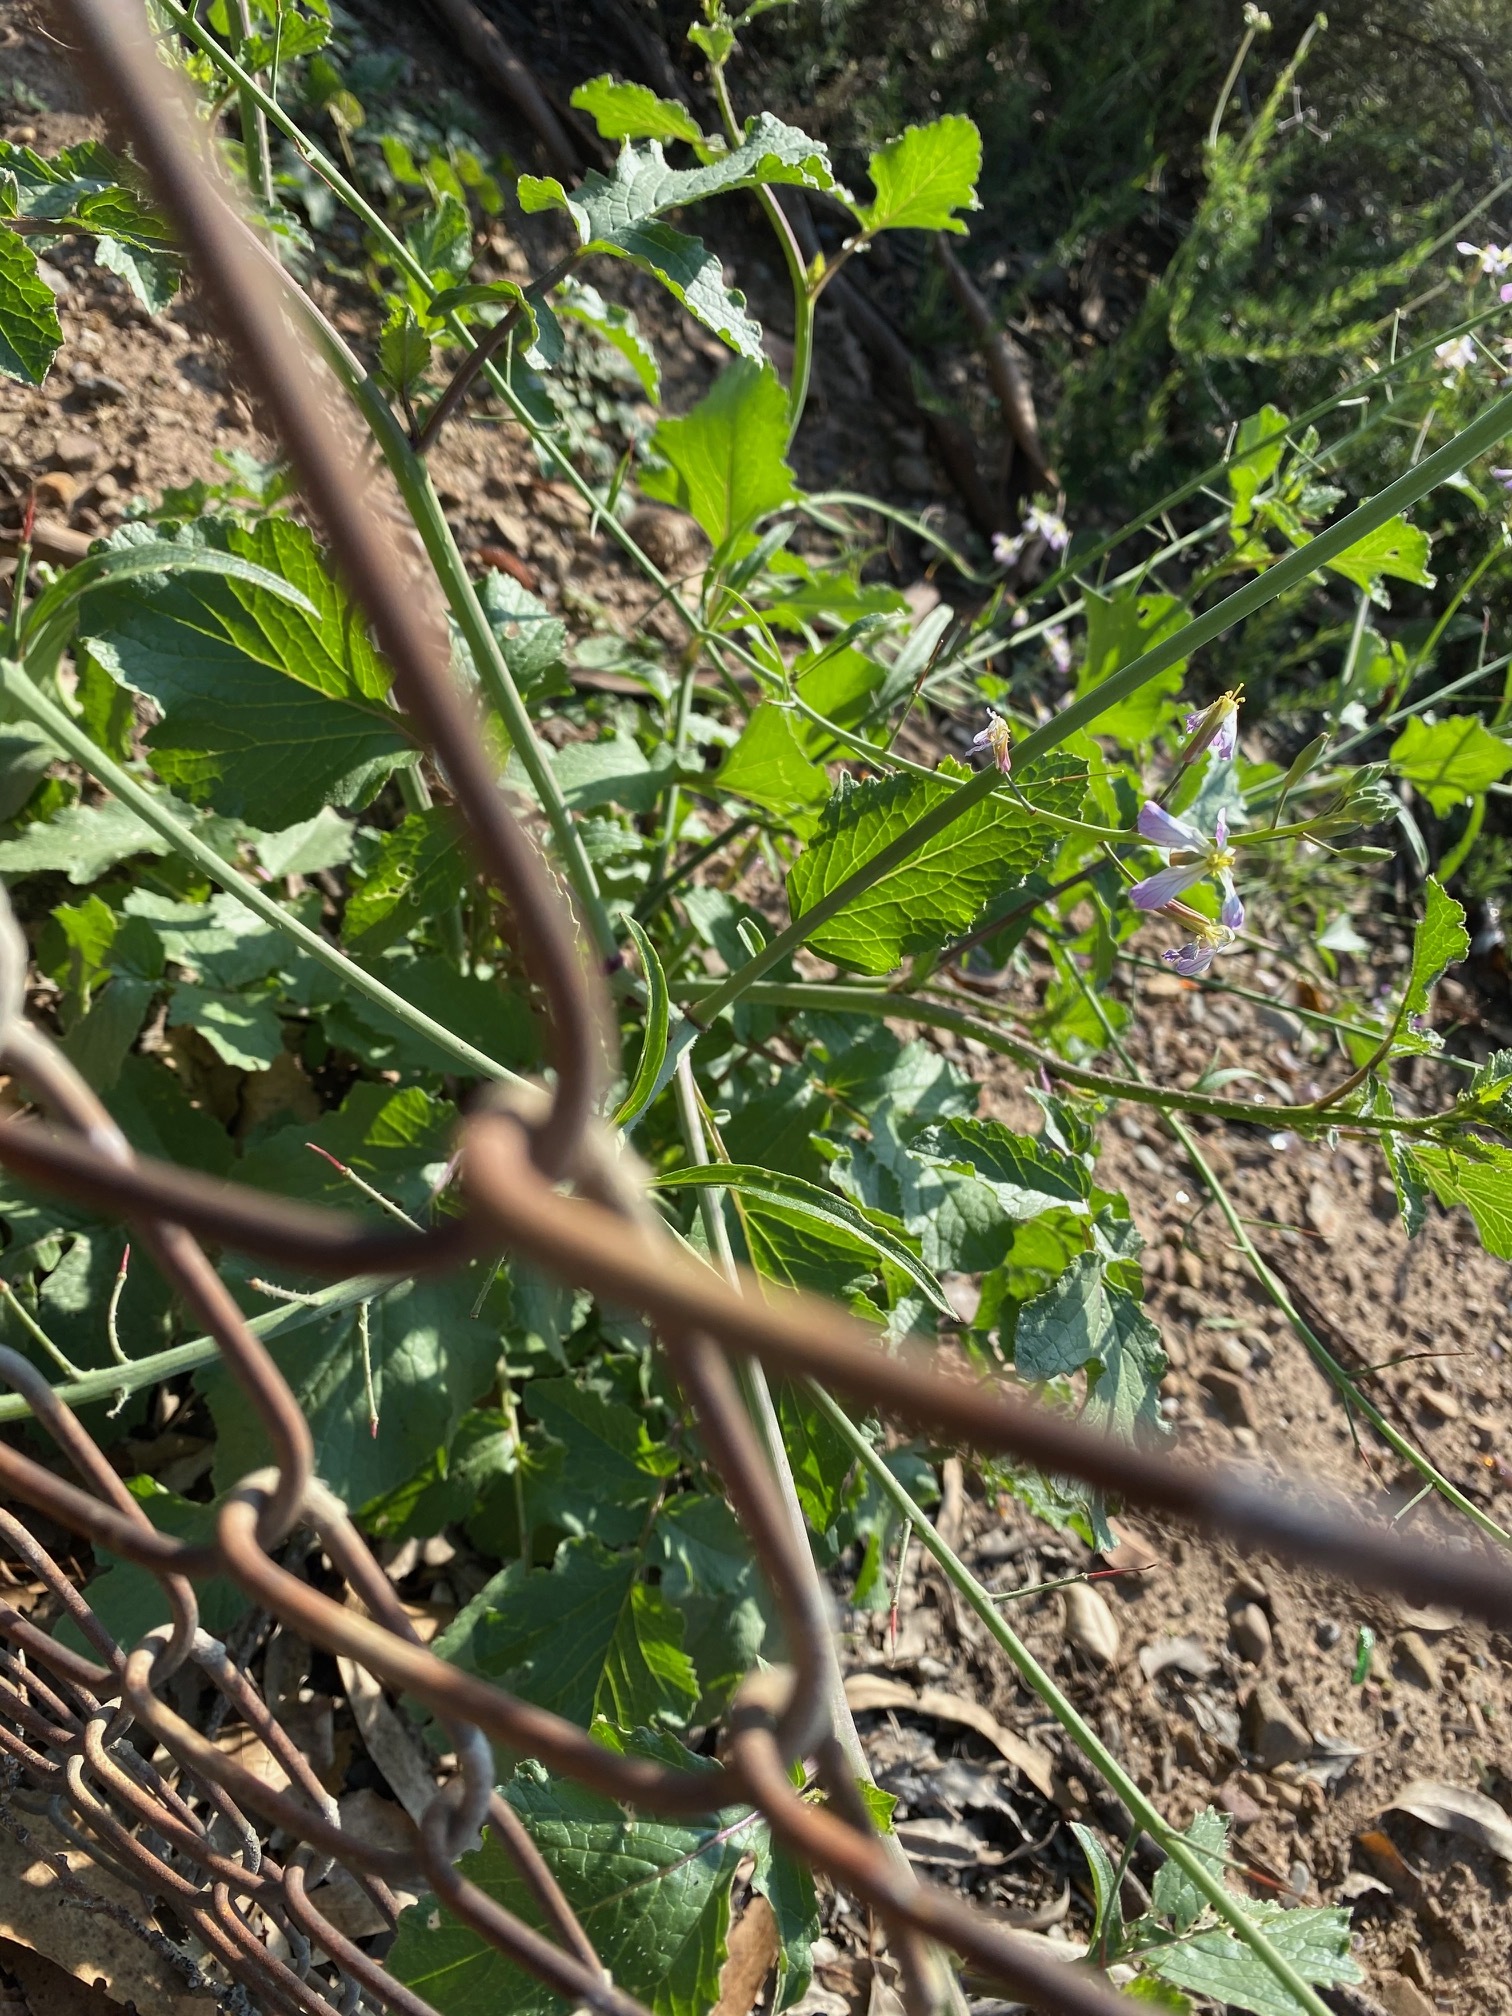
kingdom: Plantae
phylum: Tracheophyta
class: Magnoliopsida
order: Brassicales
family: Brassicaceae
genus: Raphanus
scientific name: Raphanus sativus
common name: Cultivated radish
